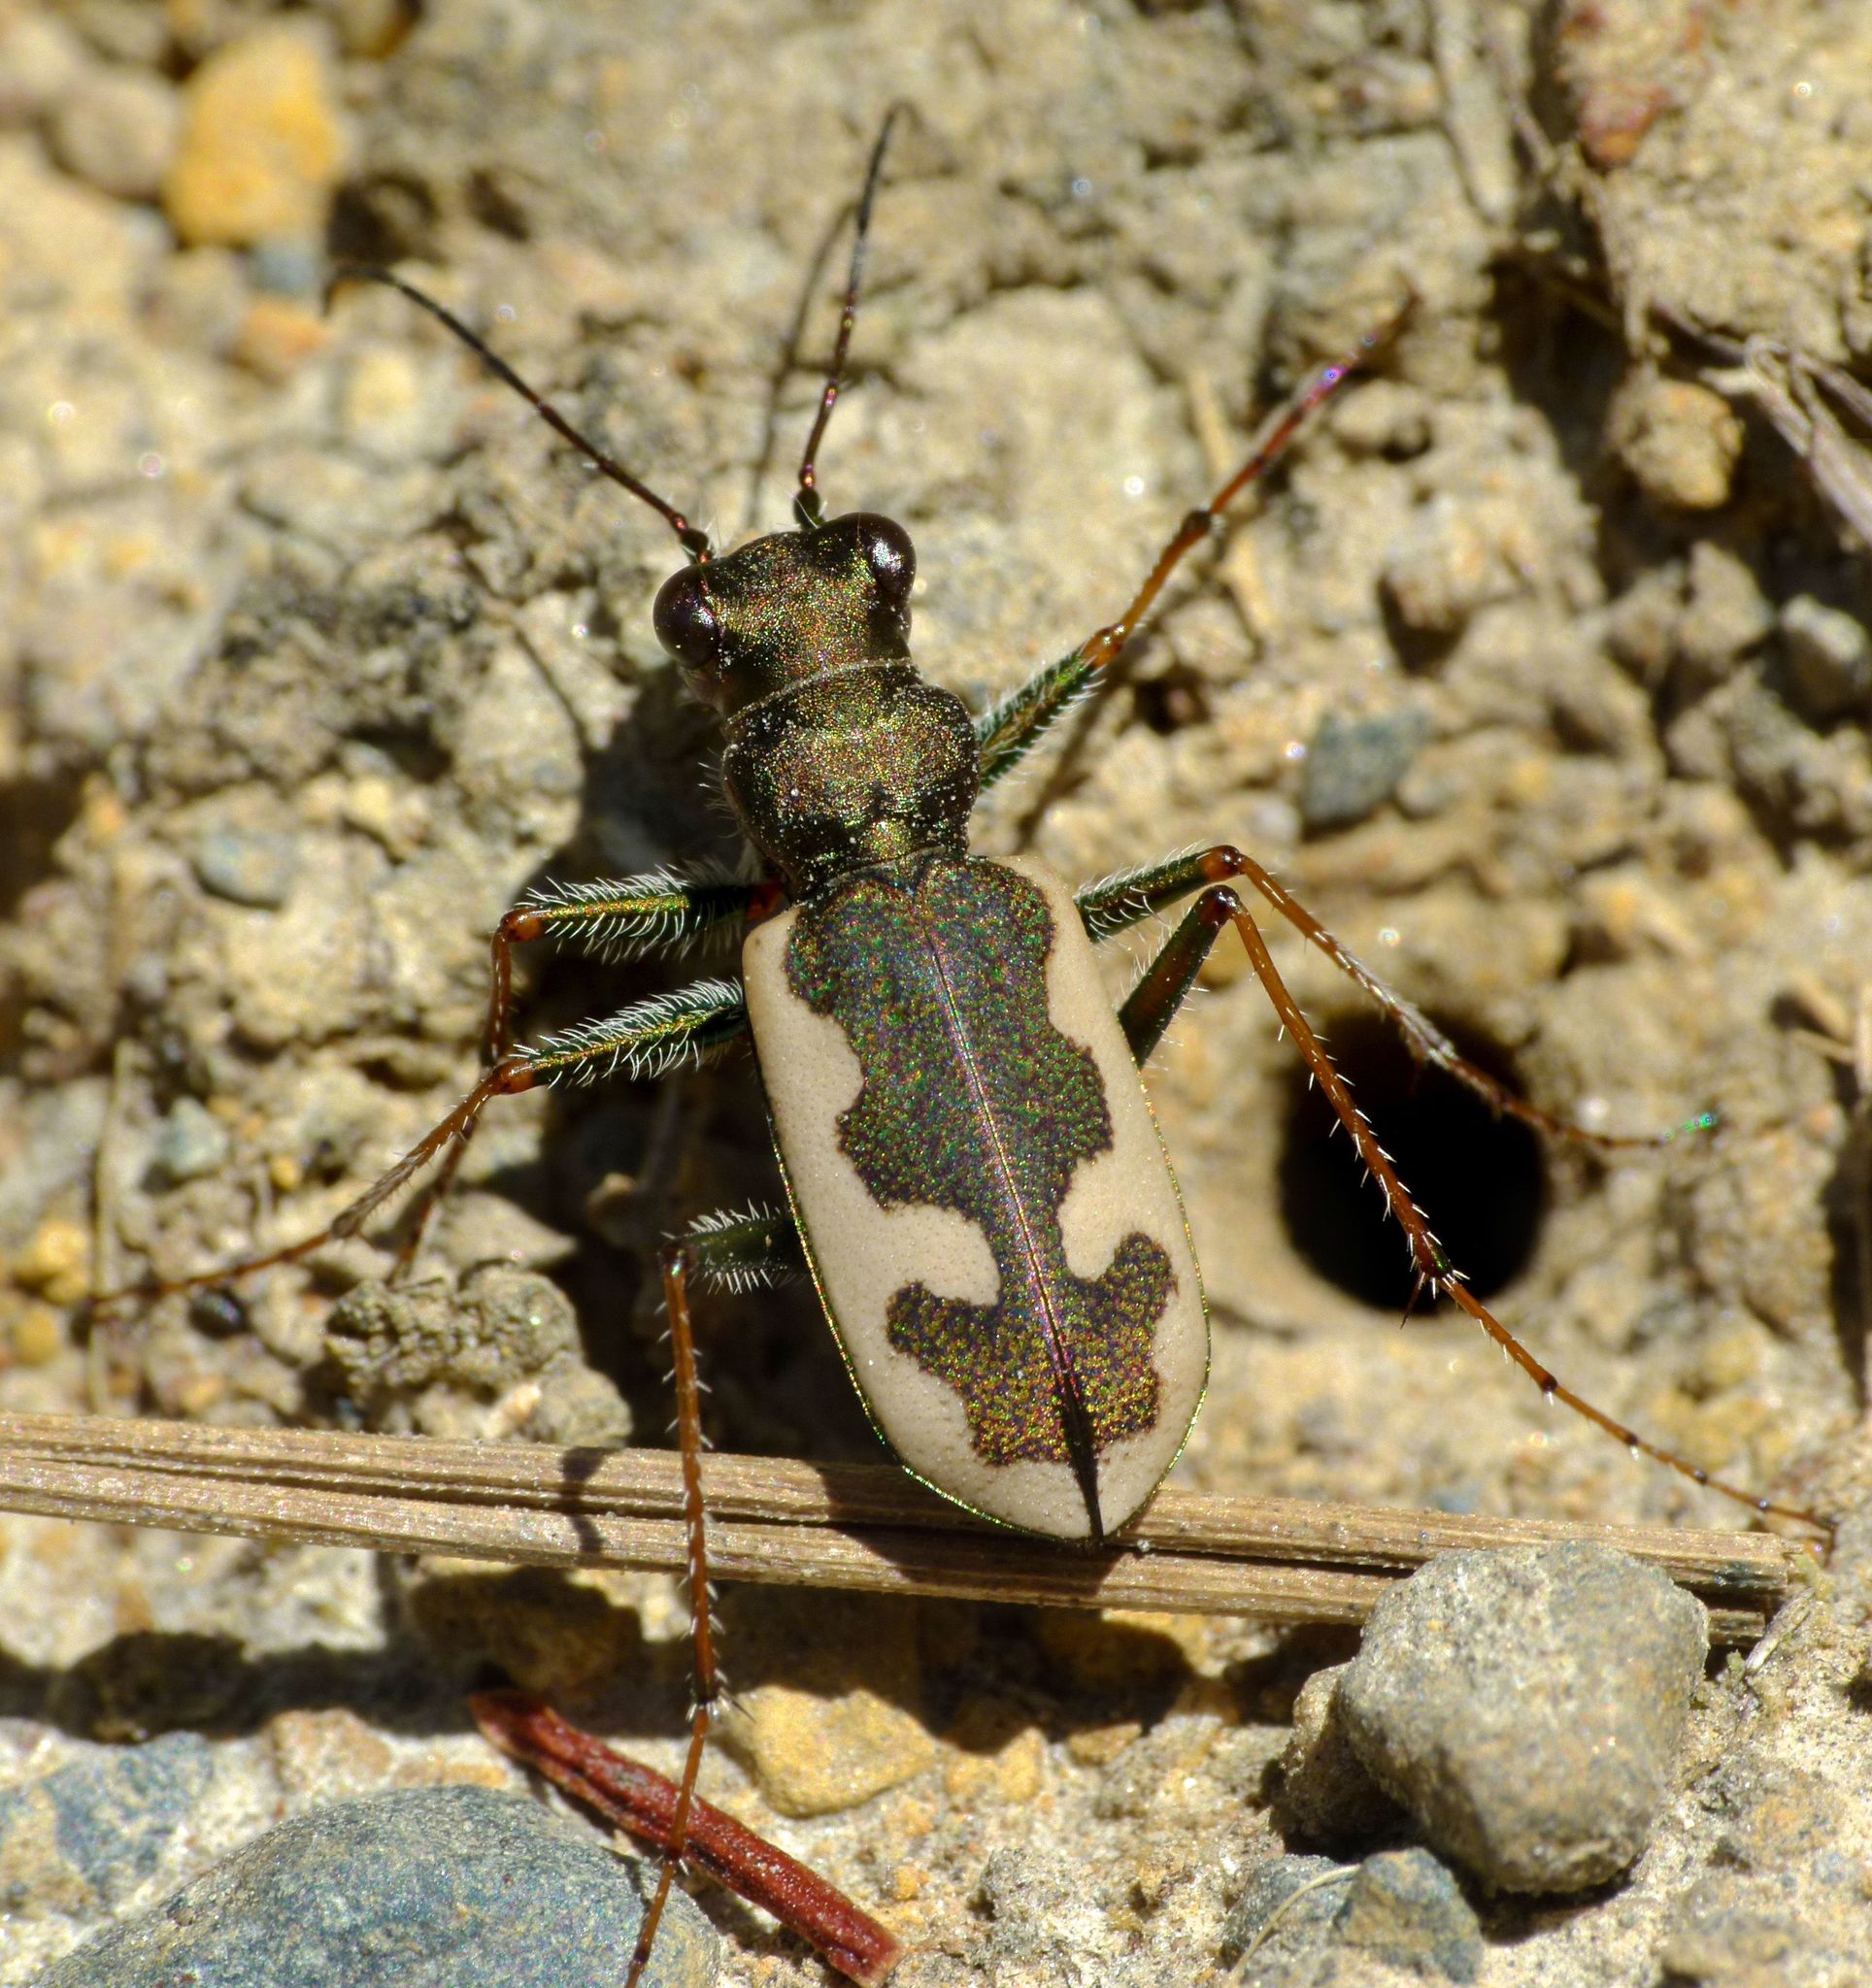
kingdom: Animalia
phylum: Arthropoda
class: Insecta
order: Coleoptera
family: Carabidae
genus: Neocicindela
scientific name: Neocicindela latecincta
